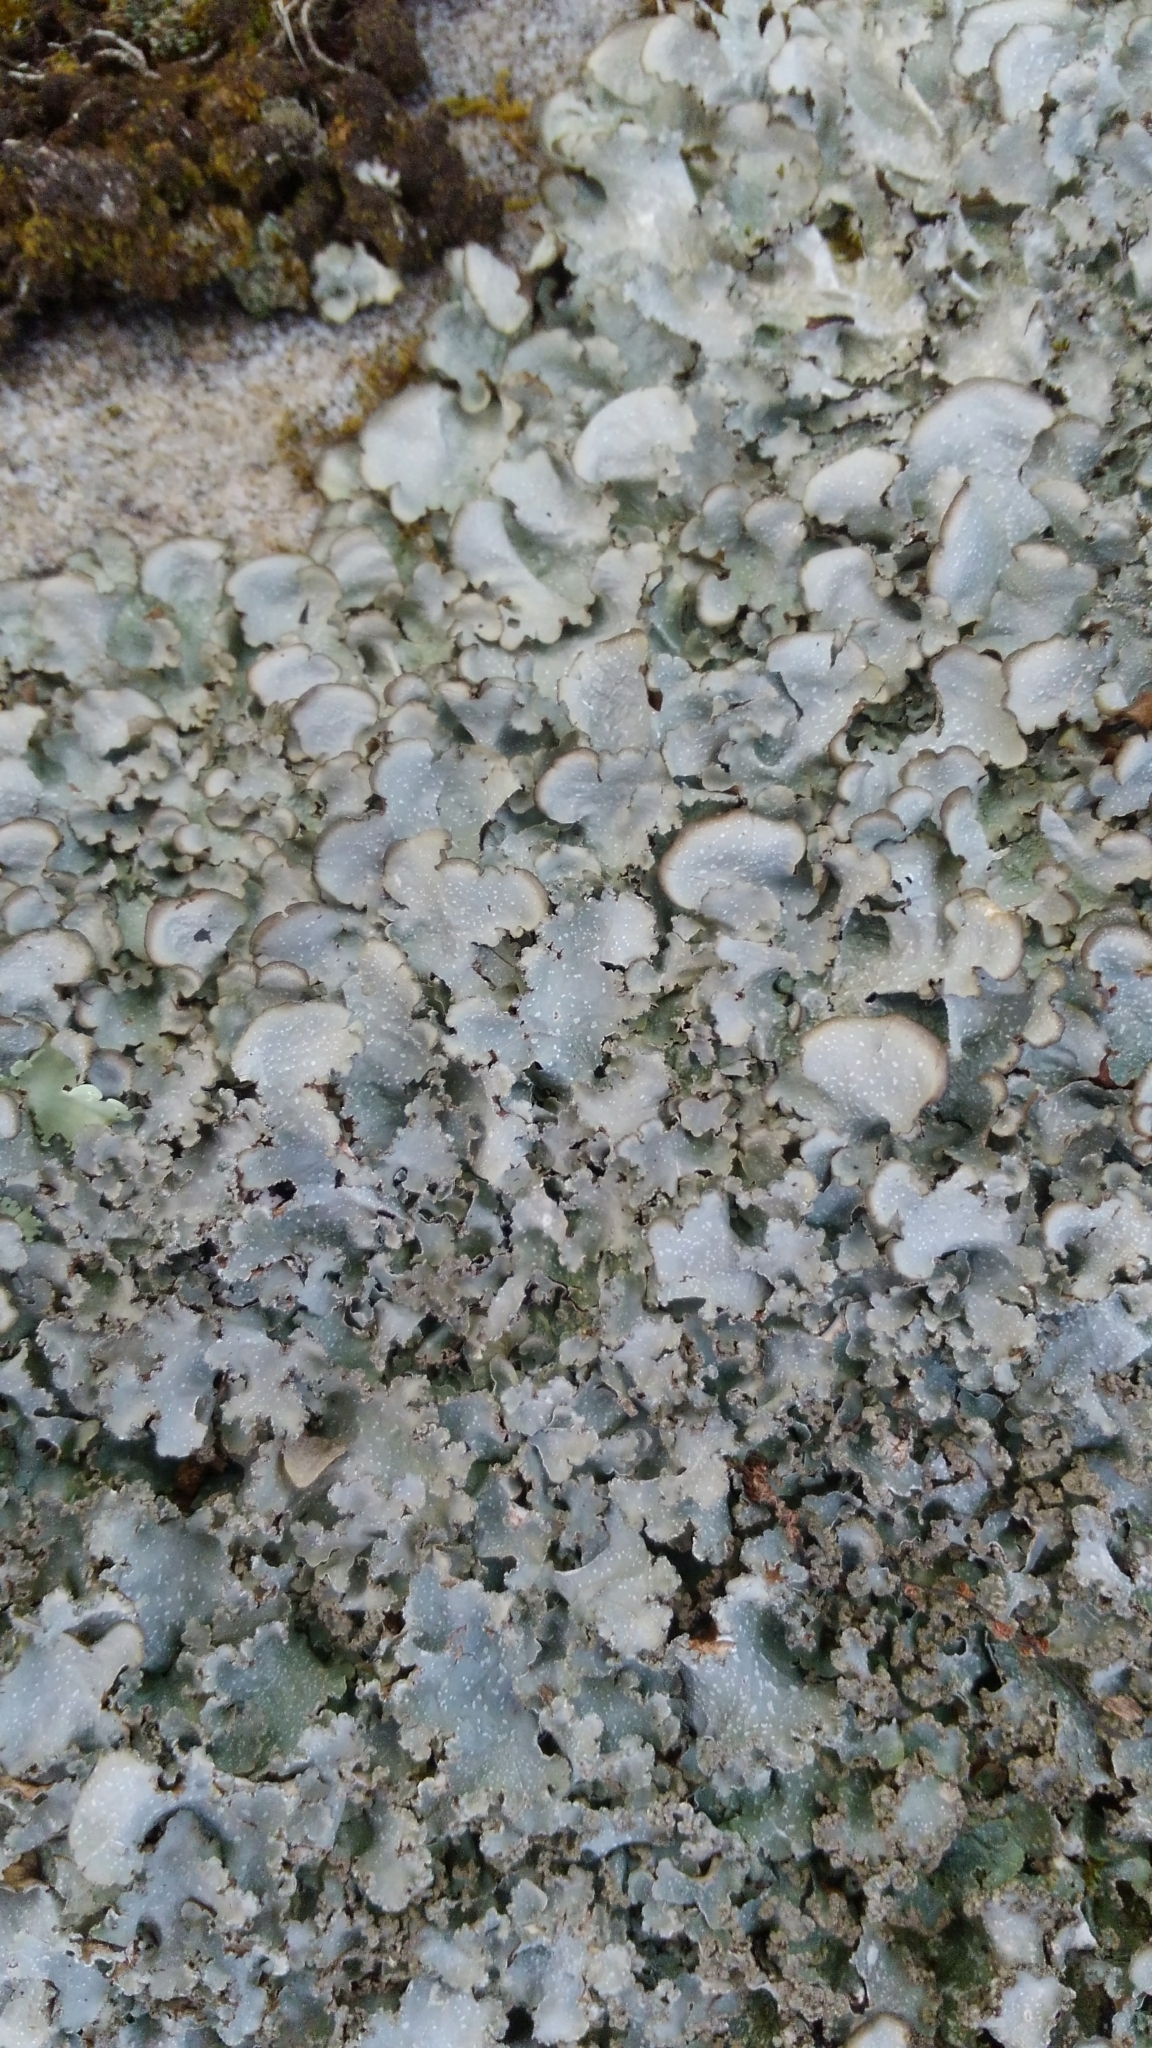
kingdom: Fungi
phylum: Ascomycota
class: Lecanoromycetes
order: Lecanorales
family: Parmeliaceae
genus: Cetrelia
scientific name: Cetrelia chicitae
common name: Chicita's sea storm lichen
